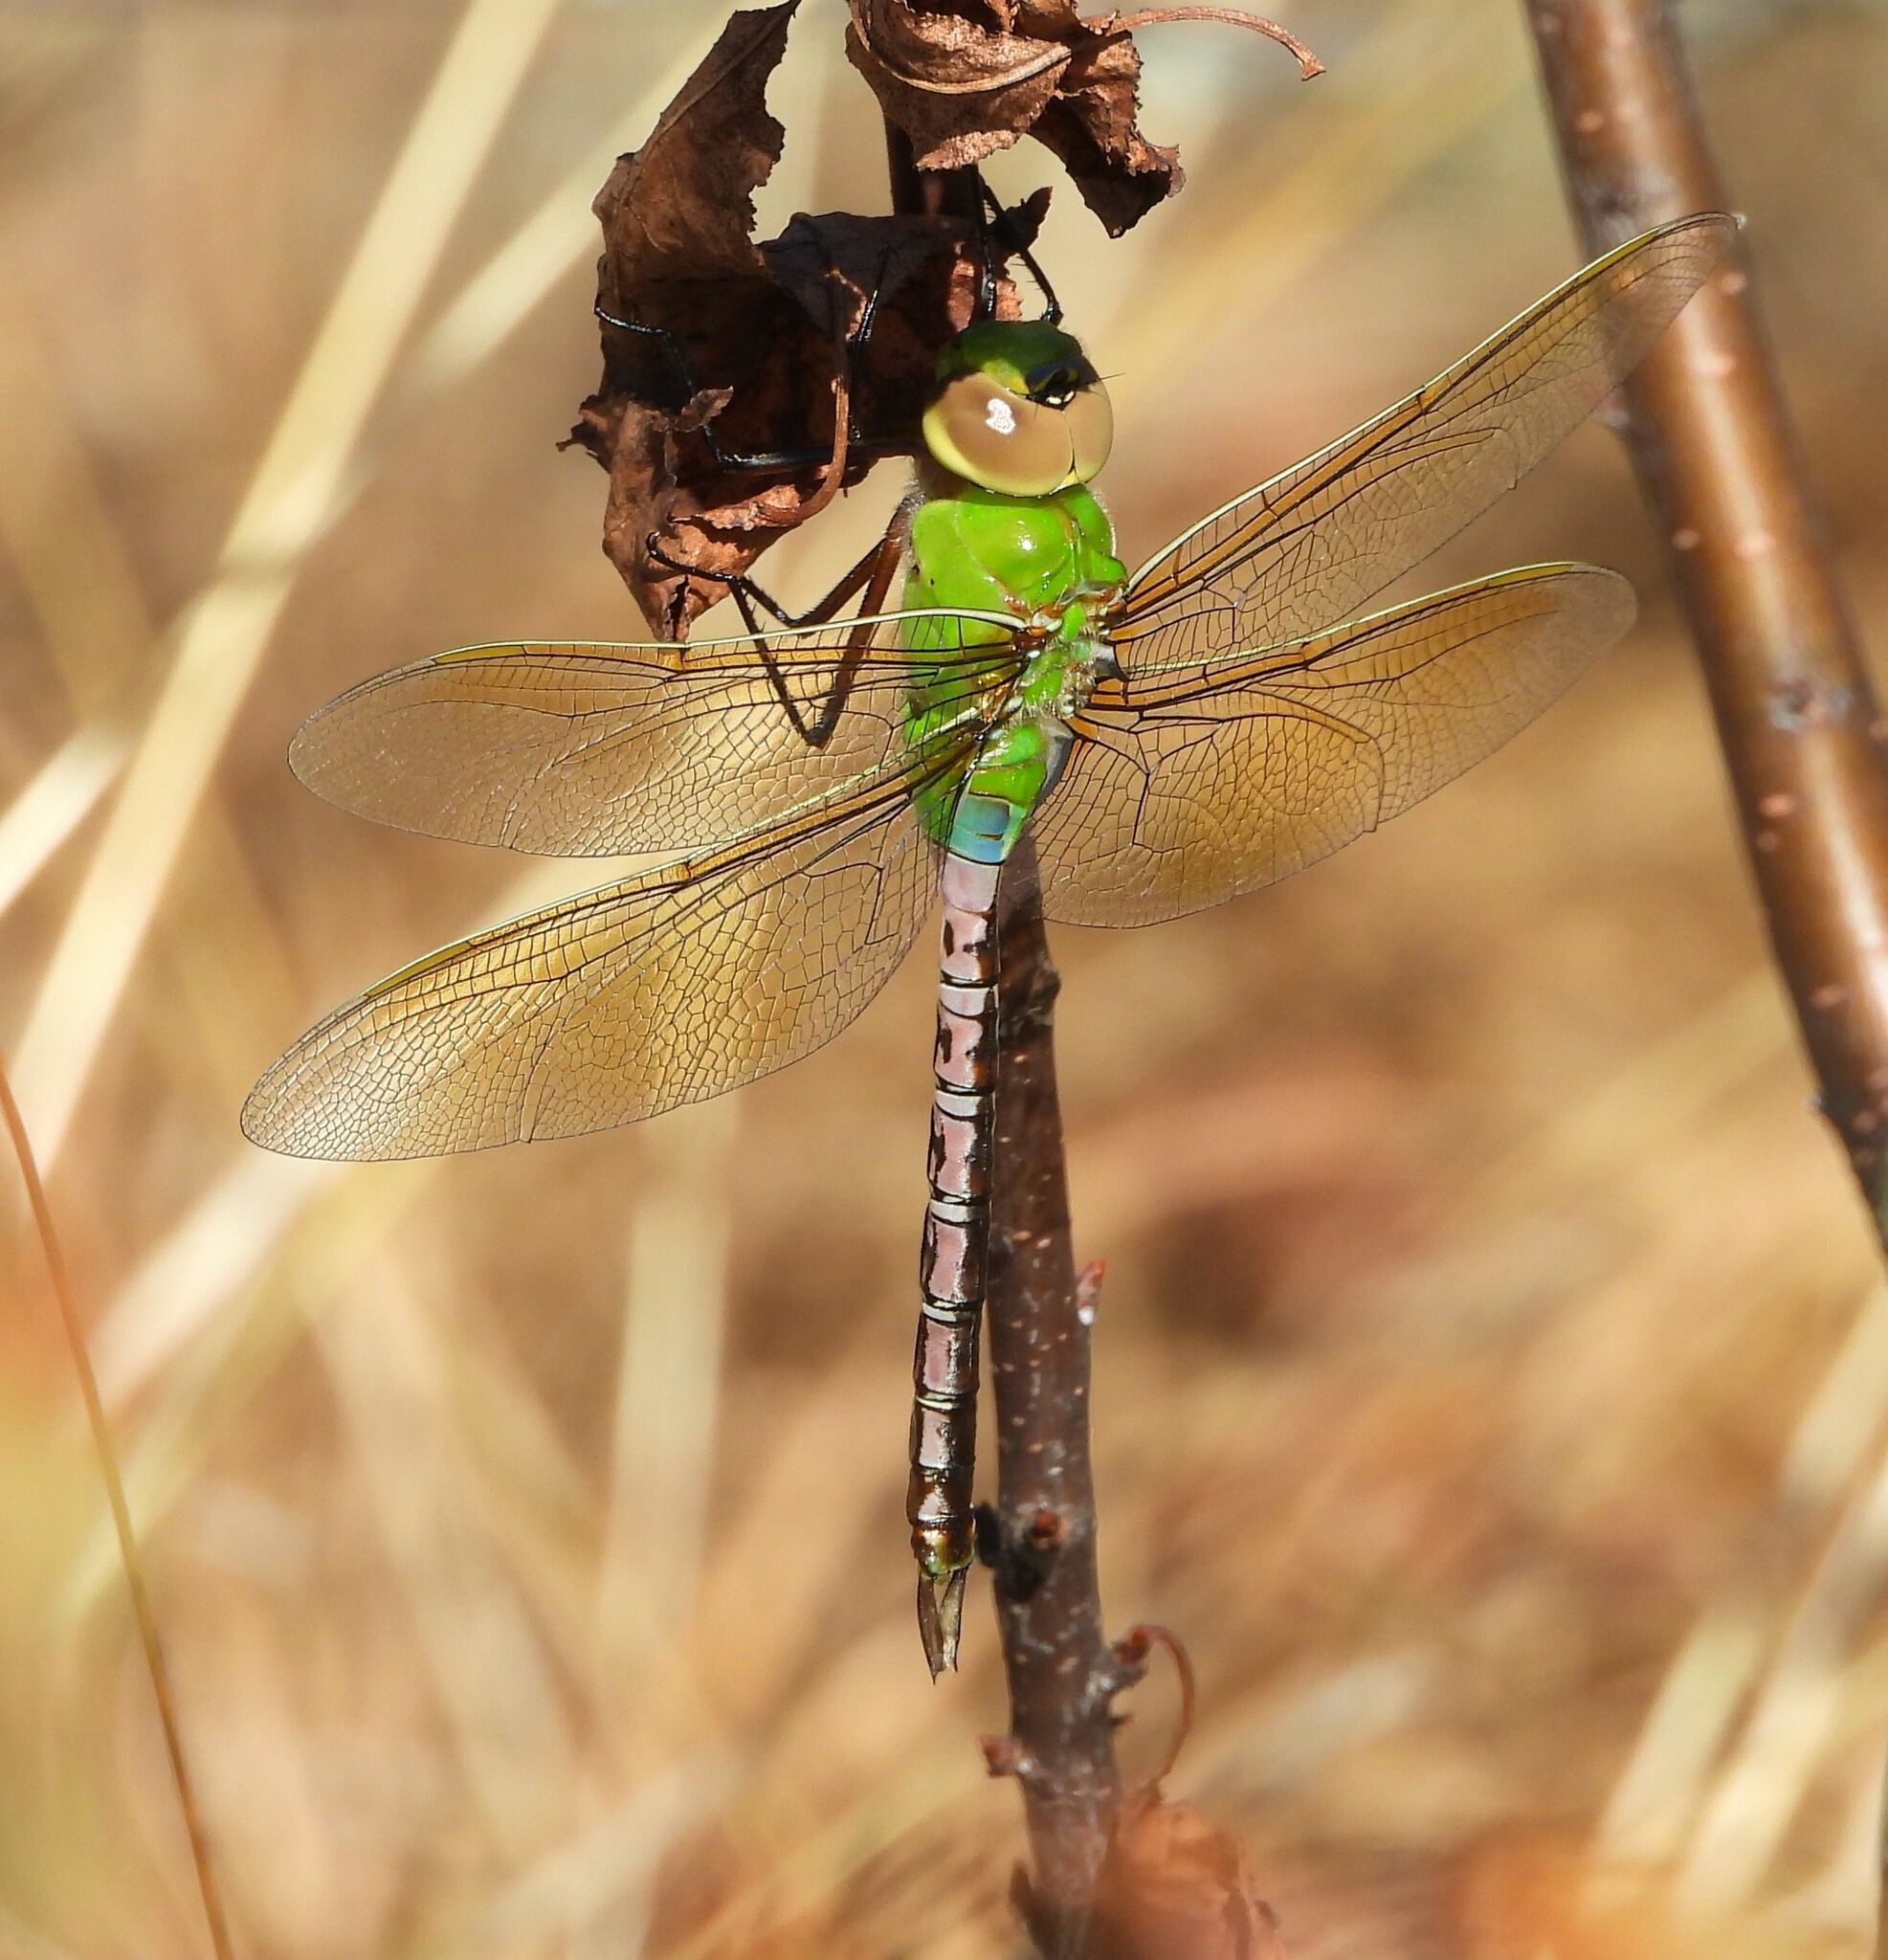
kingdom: Animalia
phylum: Arthropoda
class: Insecta
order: Odonata
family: Aeshnidae
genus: Anax
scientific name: Anax junius
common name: Common green darner
